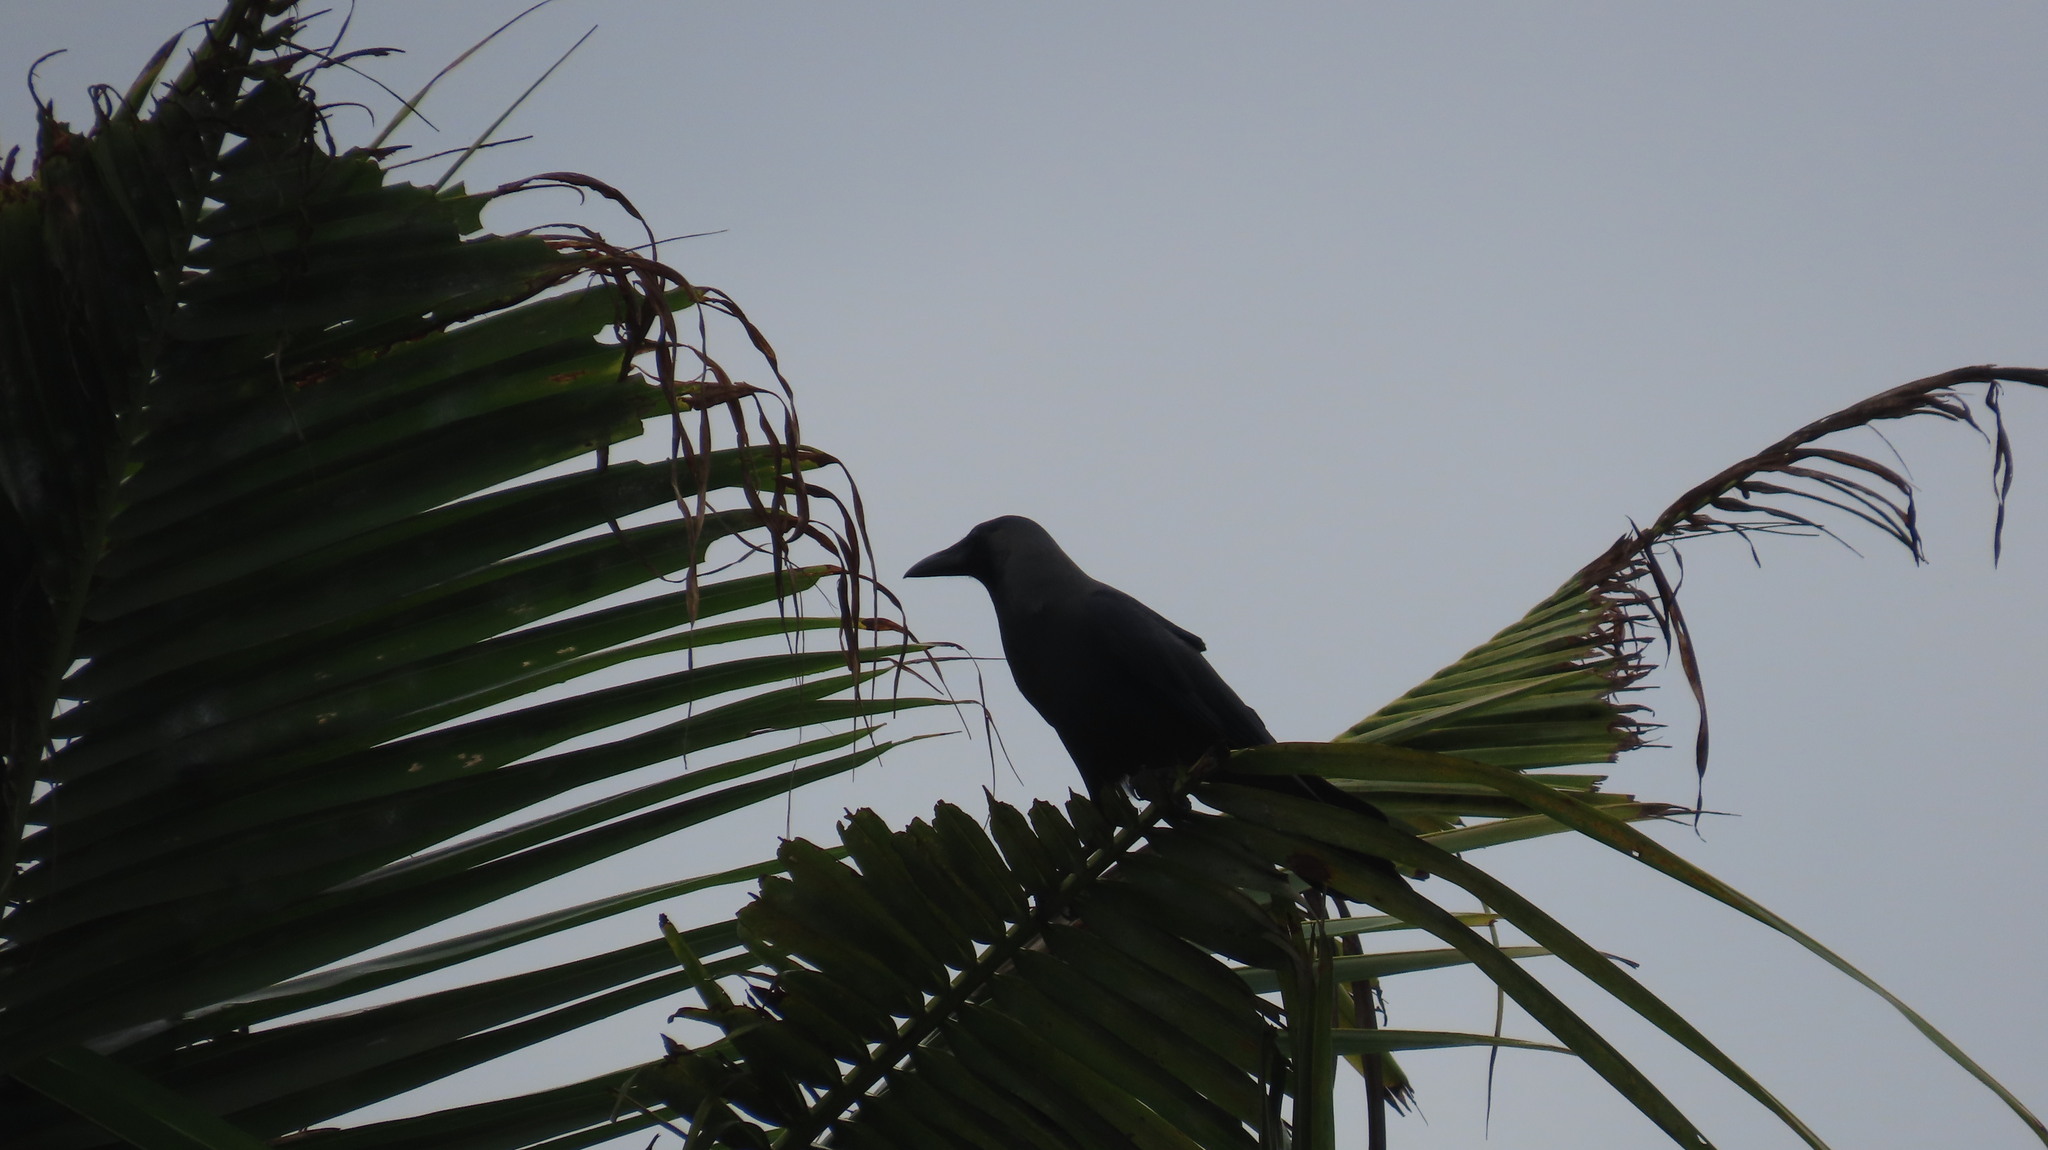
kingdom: Animalia
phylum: Chordata
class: Aves
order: Passeriformes
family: Corvidae
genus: Corvus
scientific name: Corvus splendens
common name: House crow
